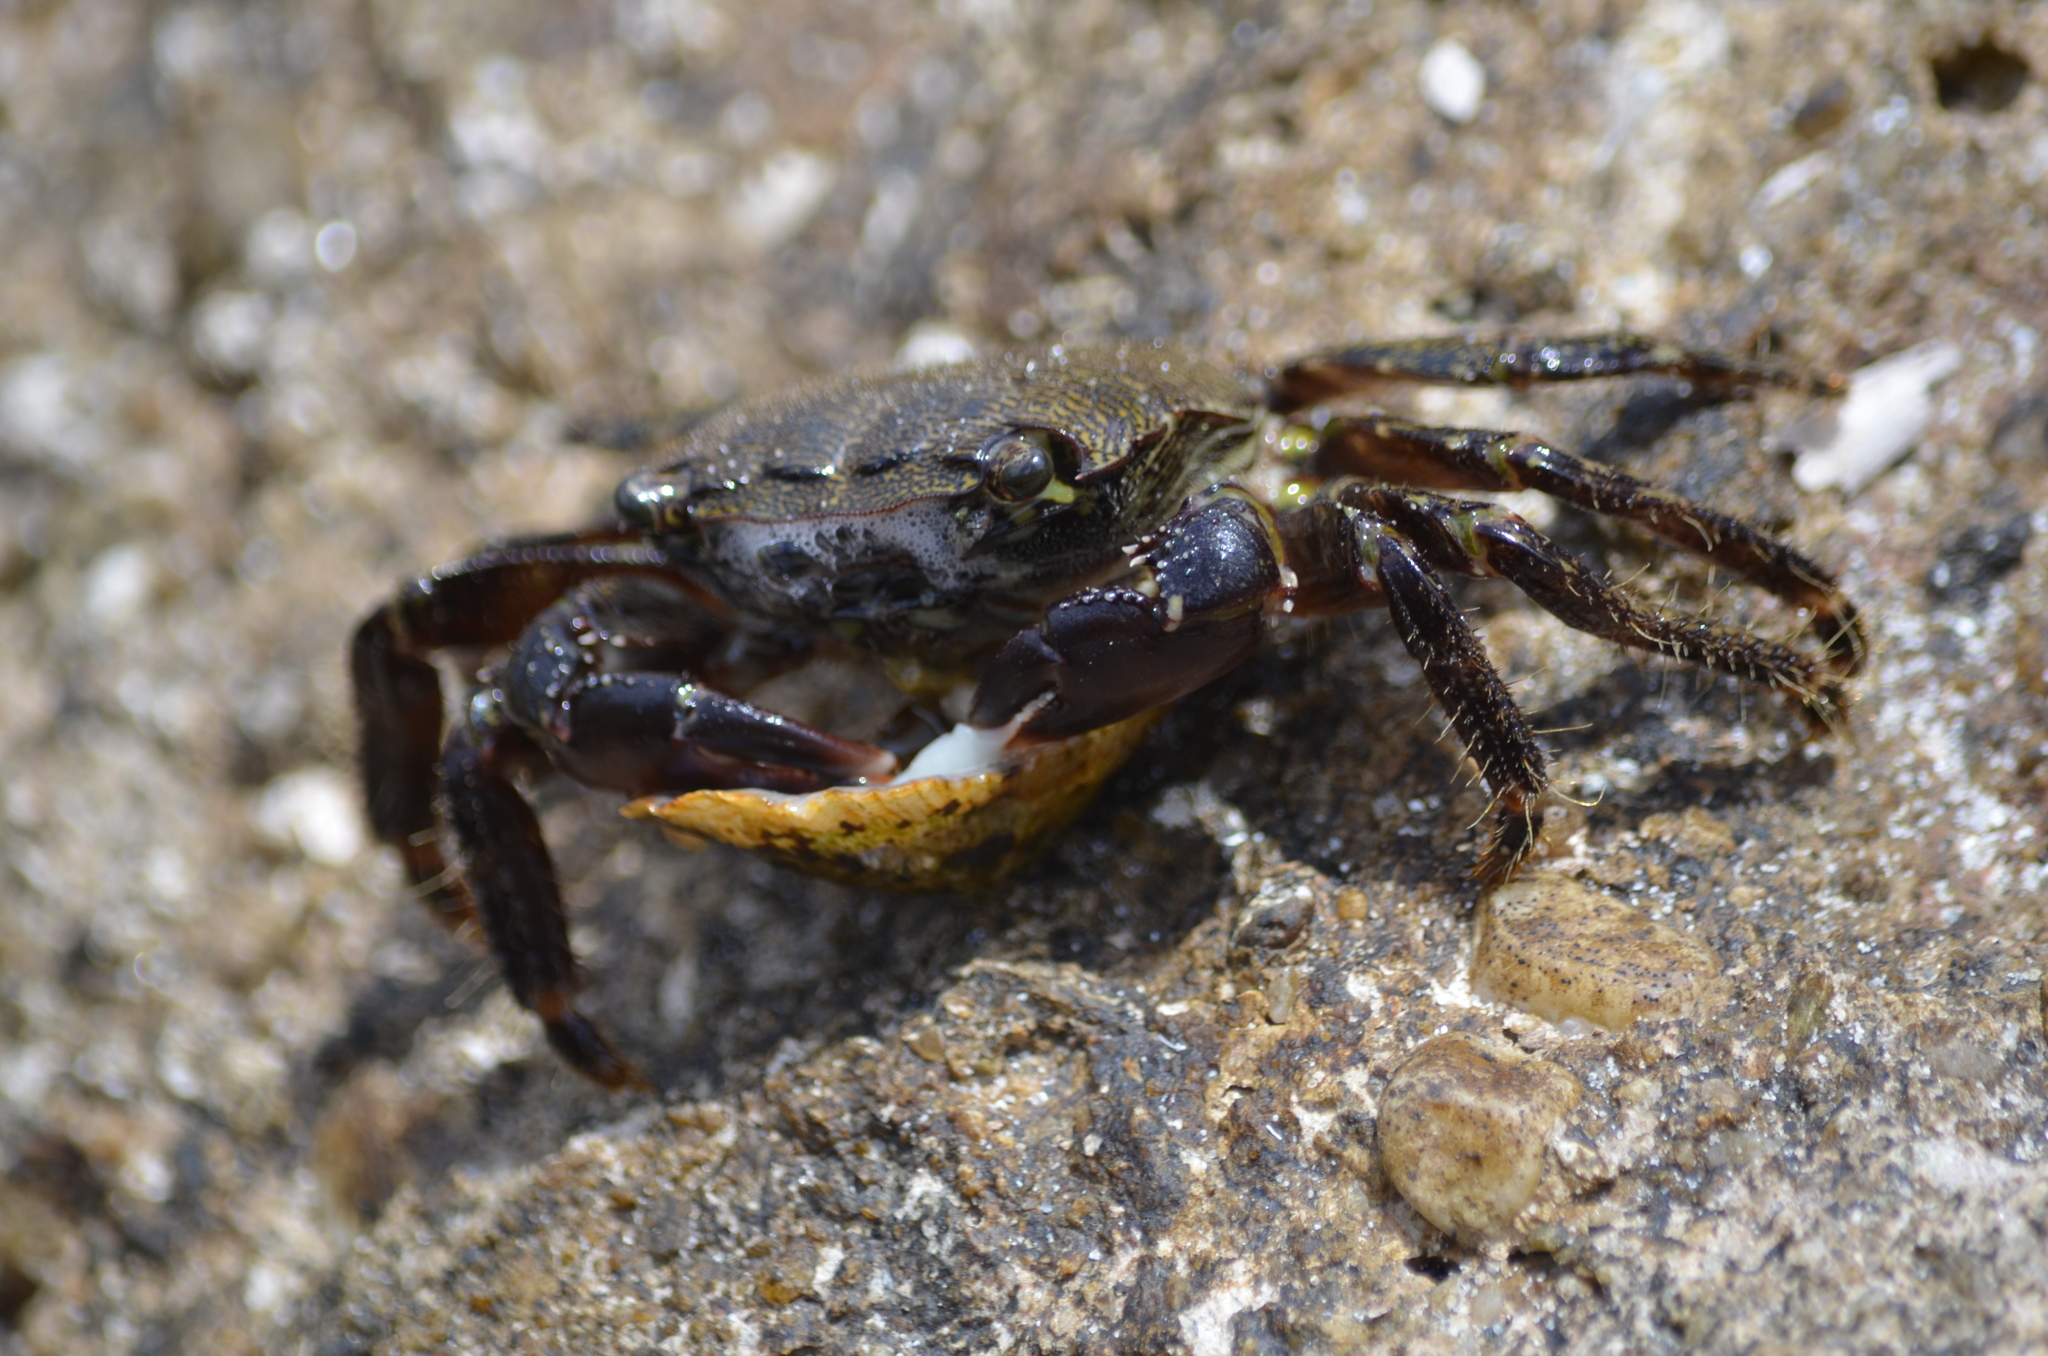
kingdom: Animalia
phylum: Arthropoda
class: Malacostraca
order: Decapoda
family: Grapsidae
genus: Pachygrapsus
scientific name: Pachygrapsus marmoratus
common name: Marbled rock crab
